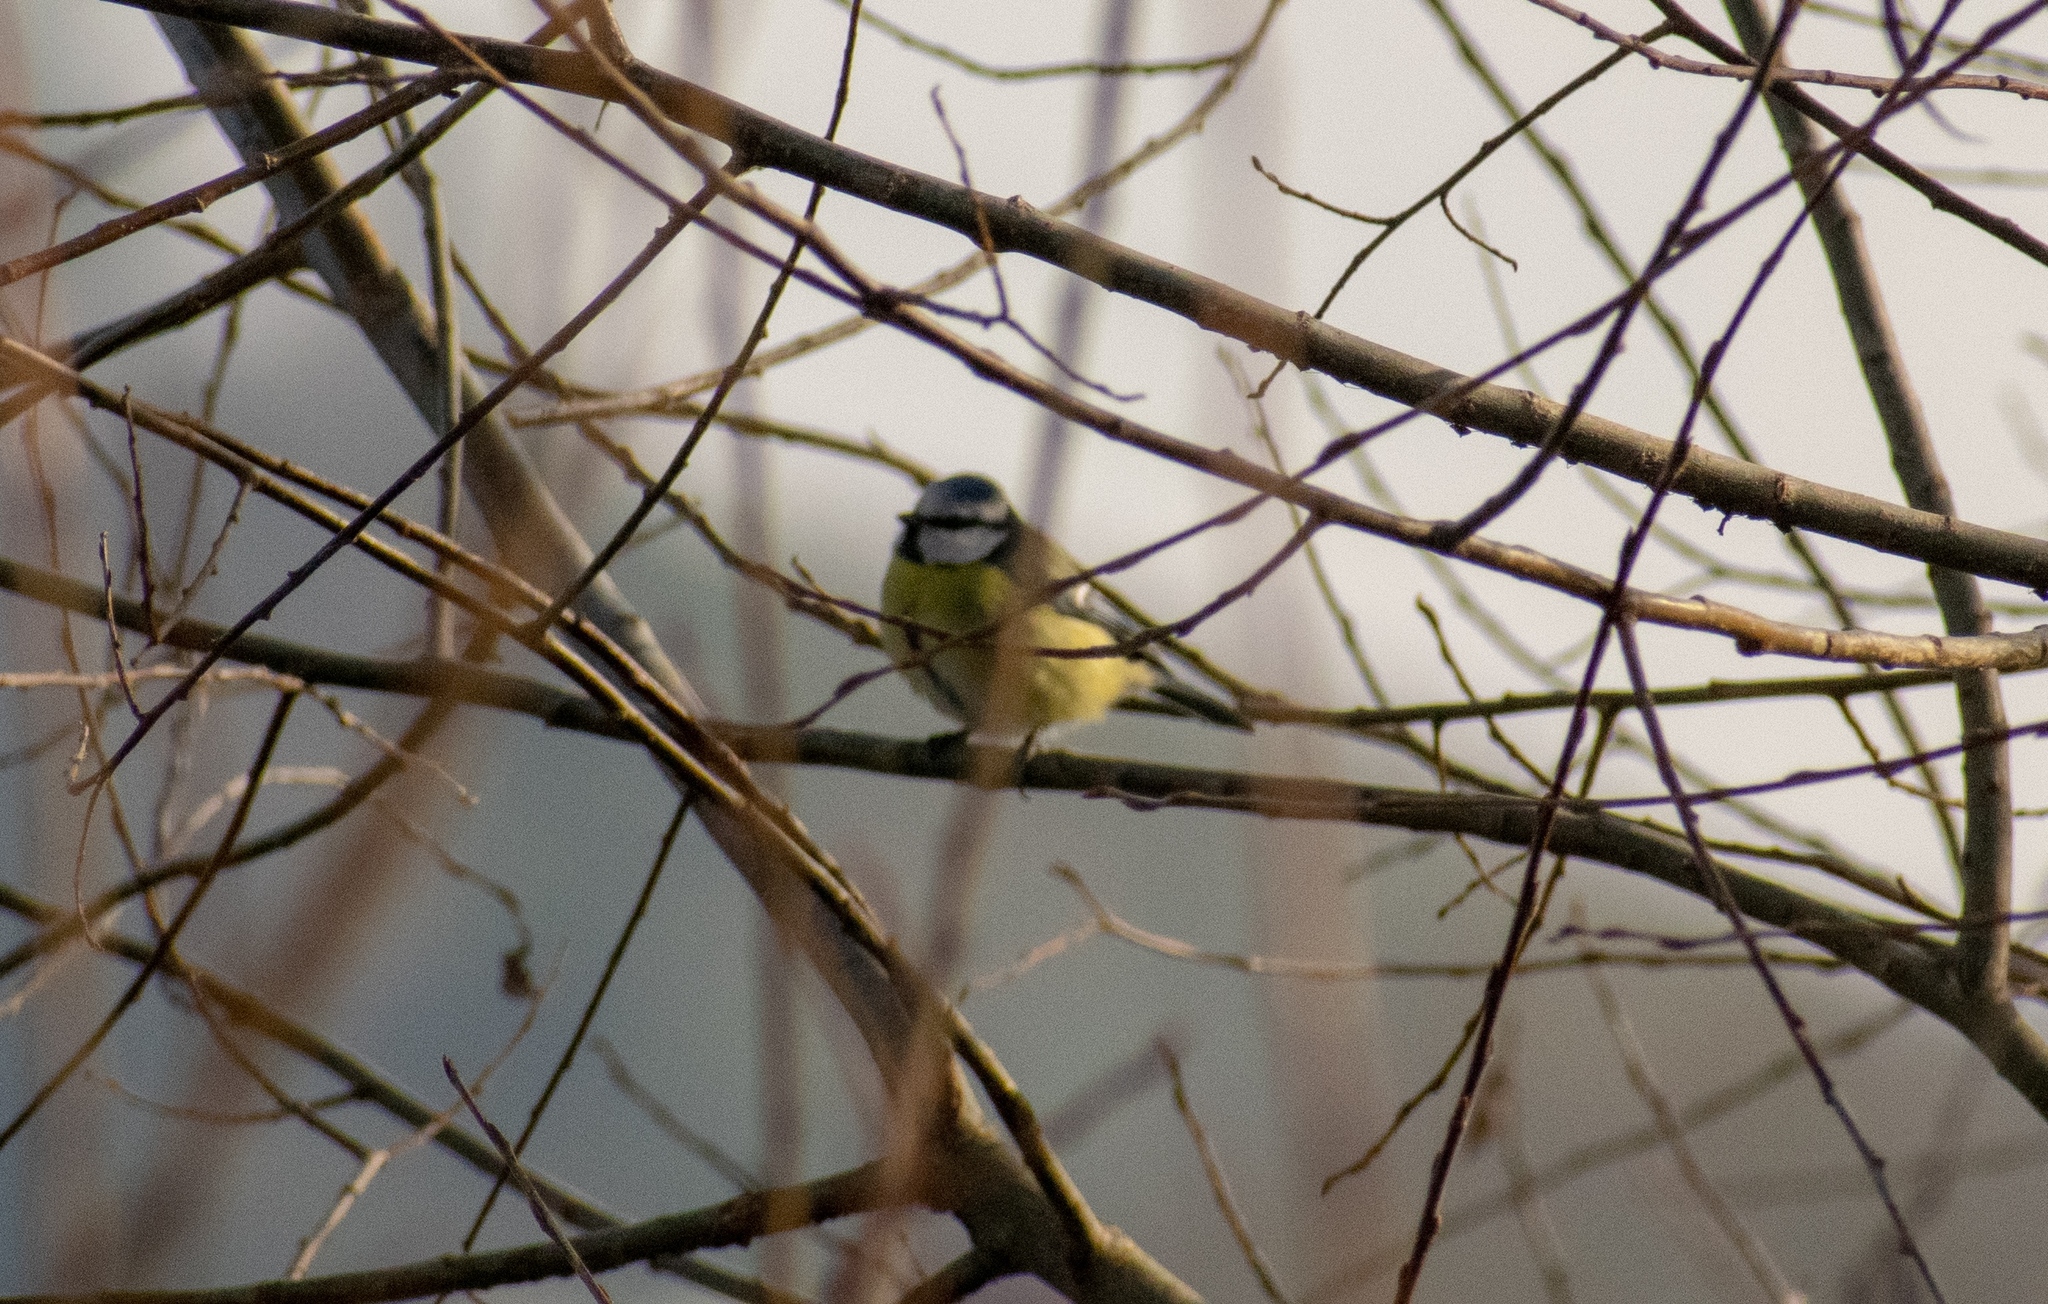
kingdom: Animalia
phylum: Chordata
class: Aves
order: Passeriformes
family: Paridae
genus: Cyanistes
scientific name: Cyanistes caeruleus
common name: Eurasian blue tit
